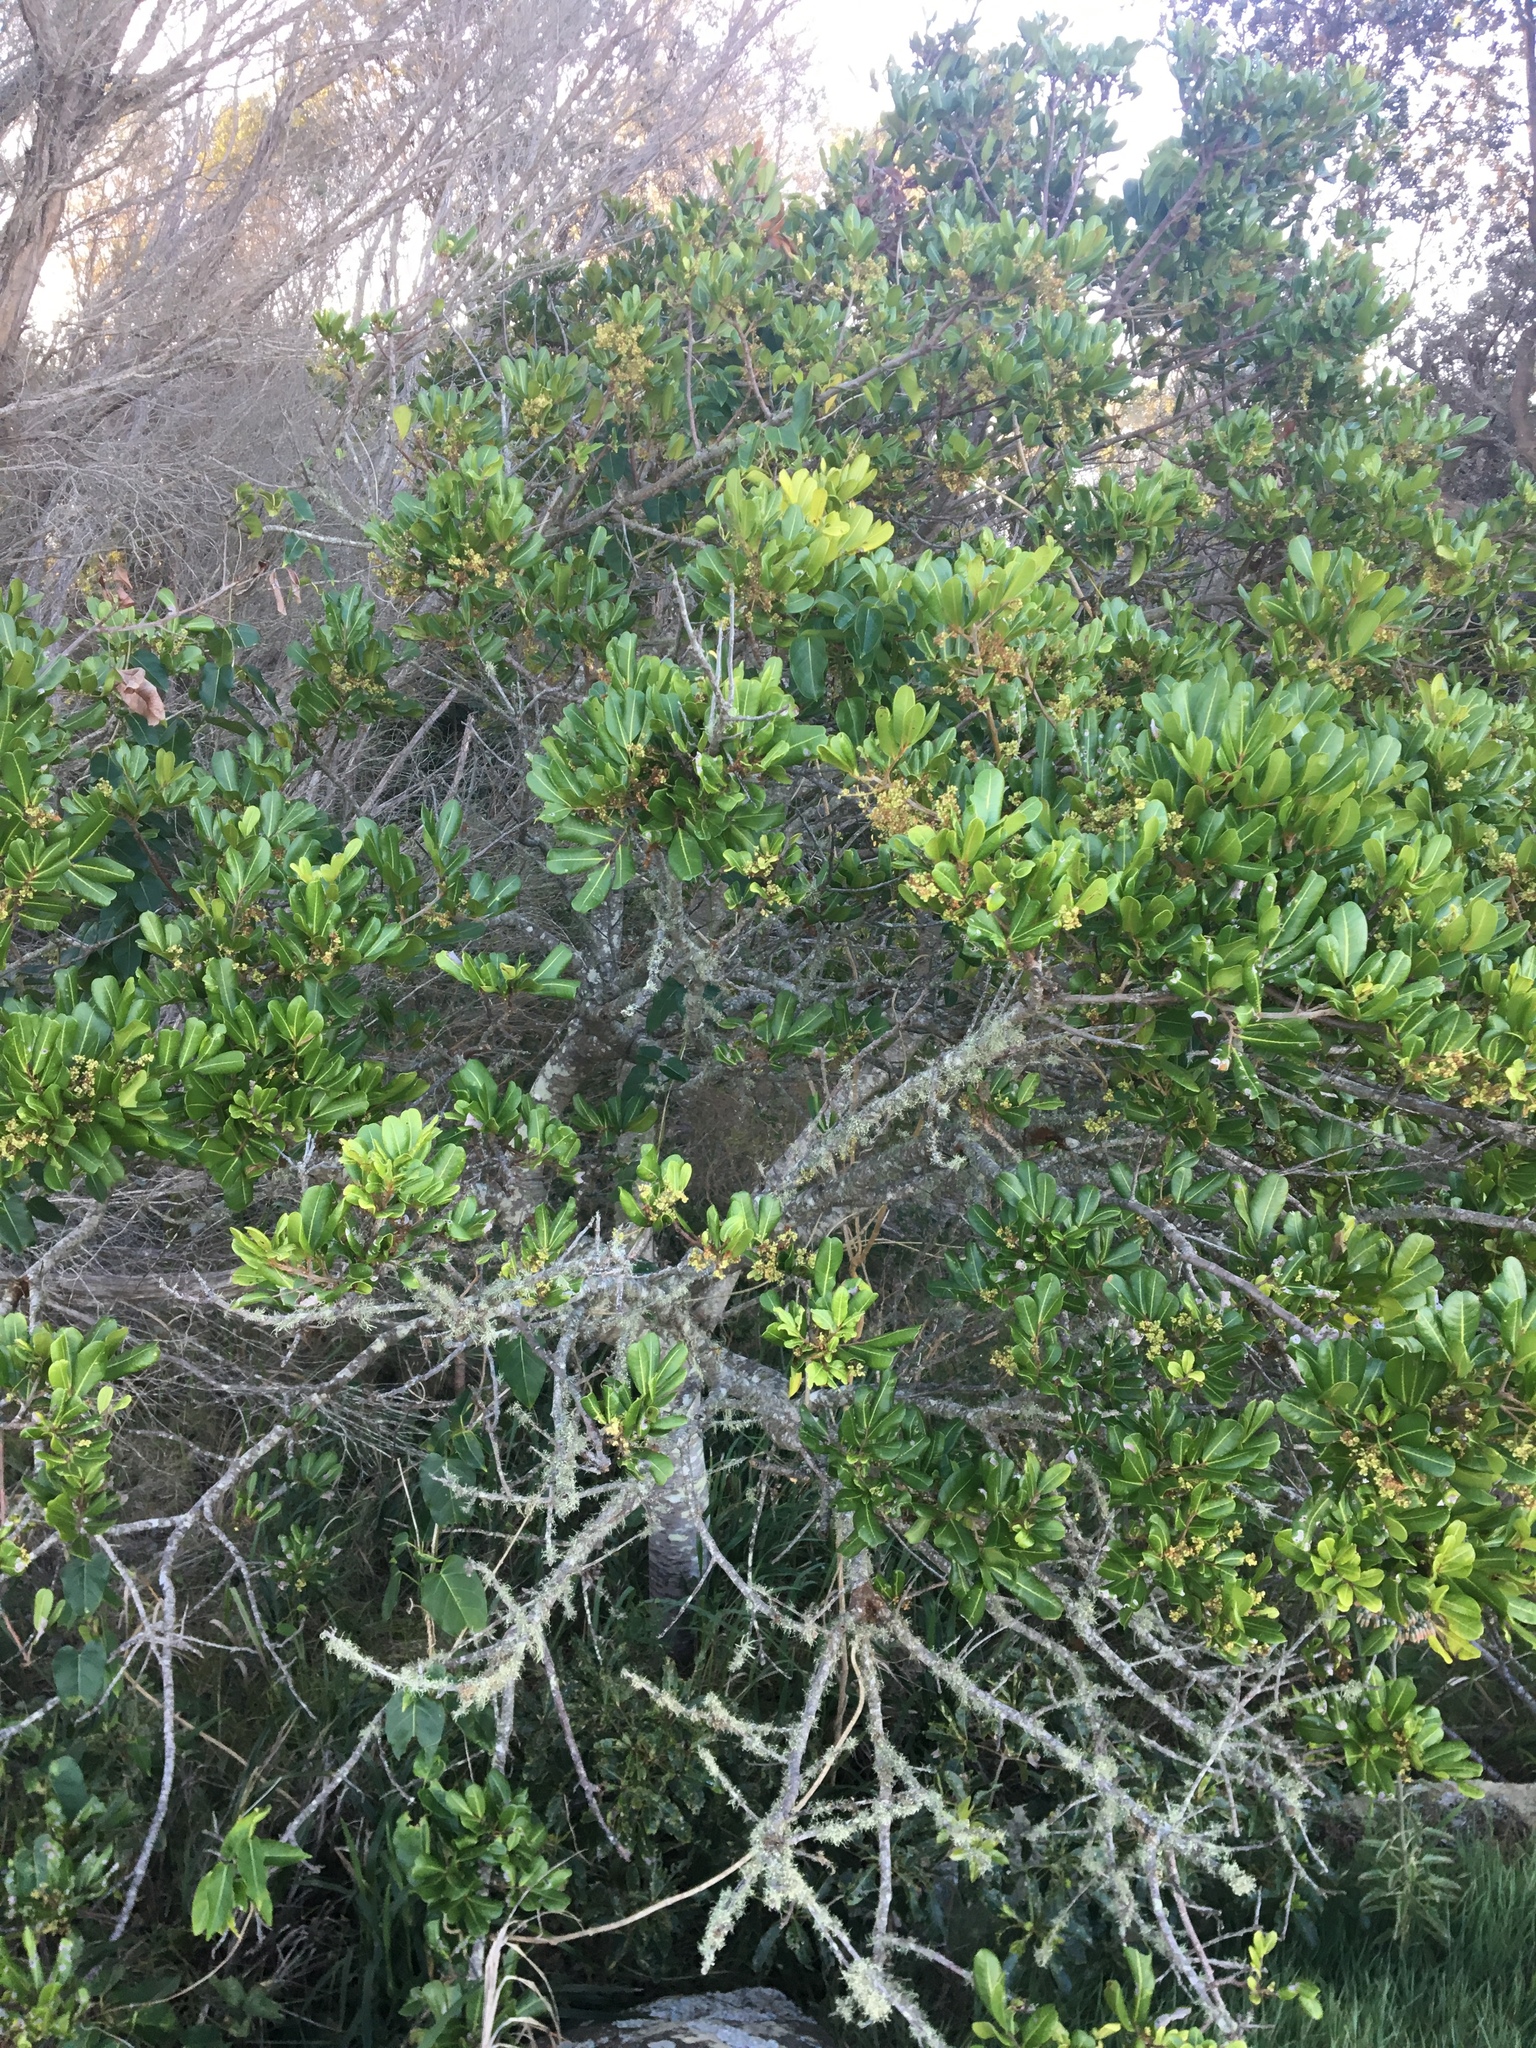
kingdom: Plantae
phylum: Tracheophyta
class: Magnoliopsida
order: Sapindales
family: Sapindaceae
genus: Cupaniopsis
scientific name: Cupaniopsis anacardioides
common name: Carrotwood
